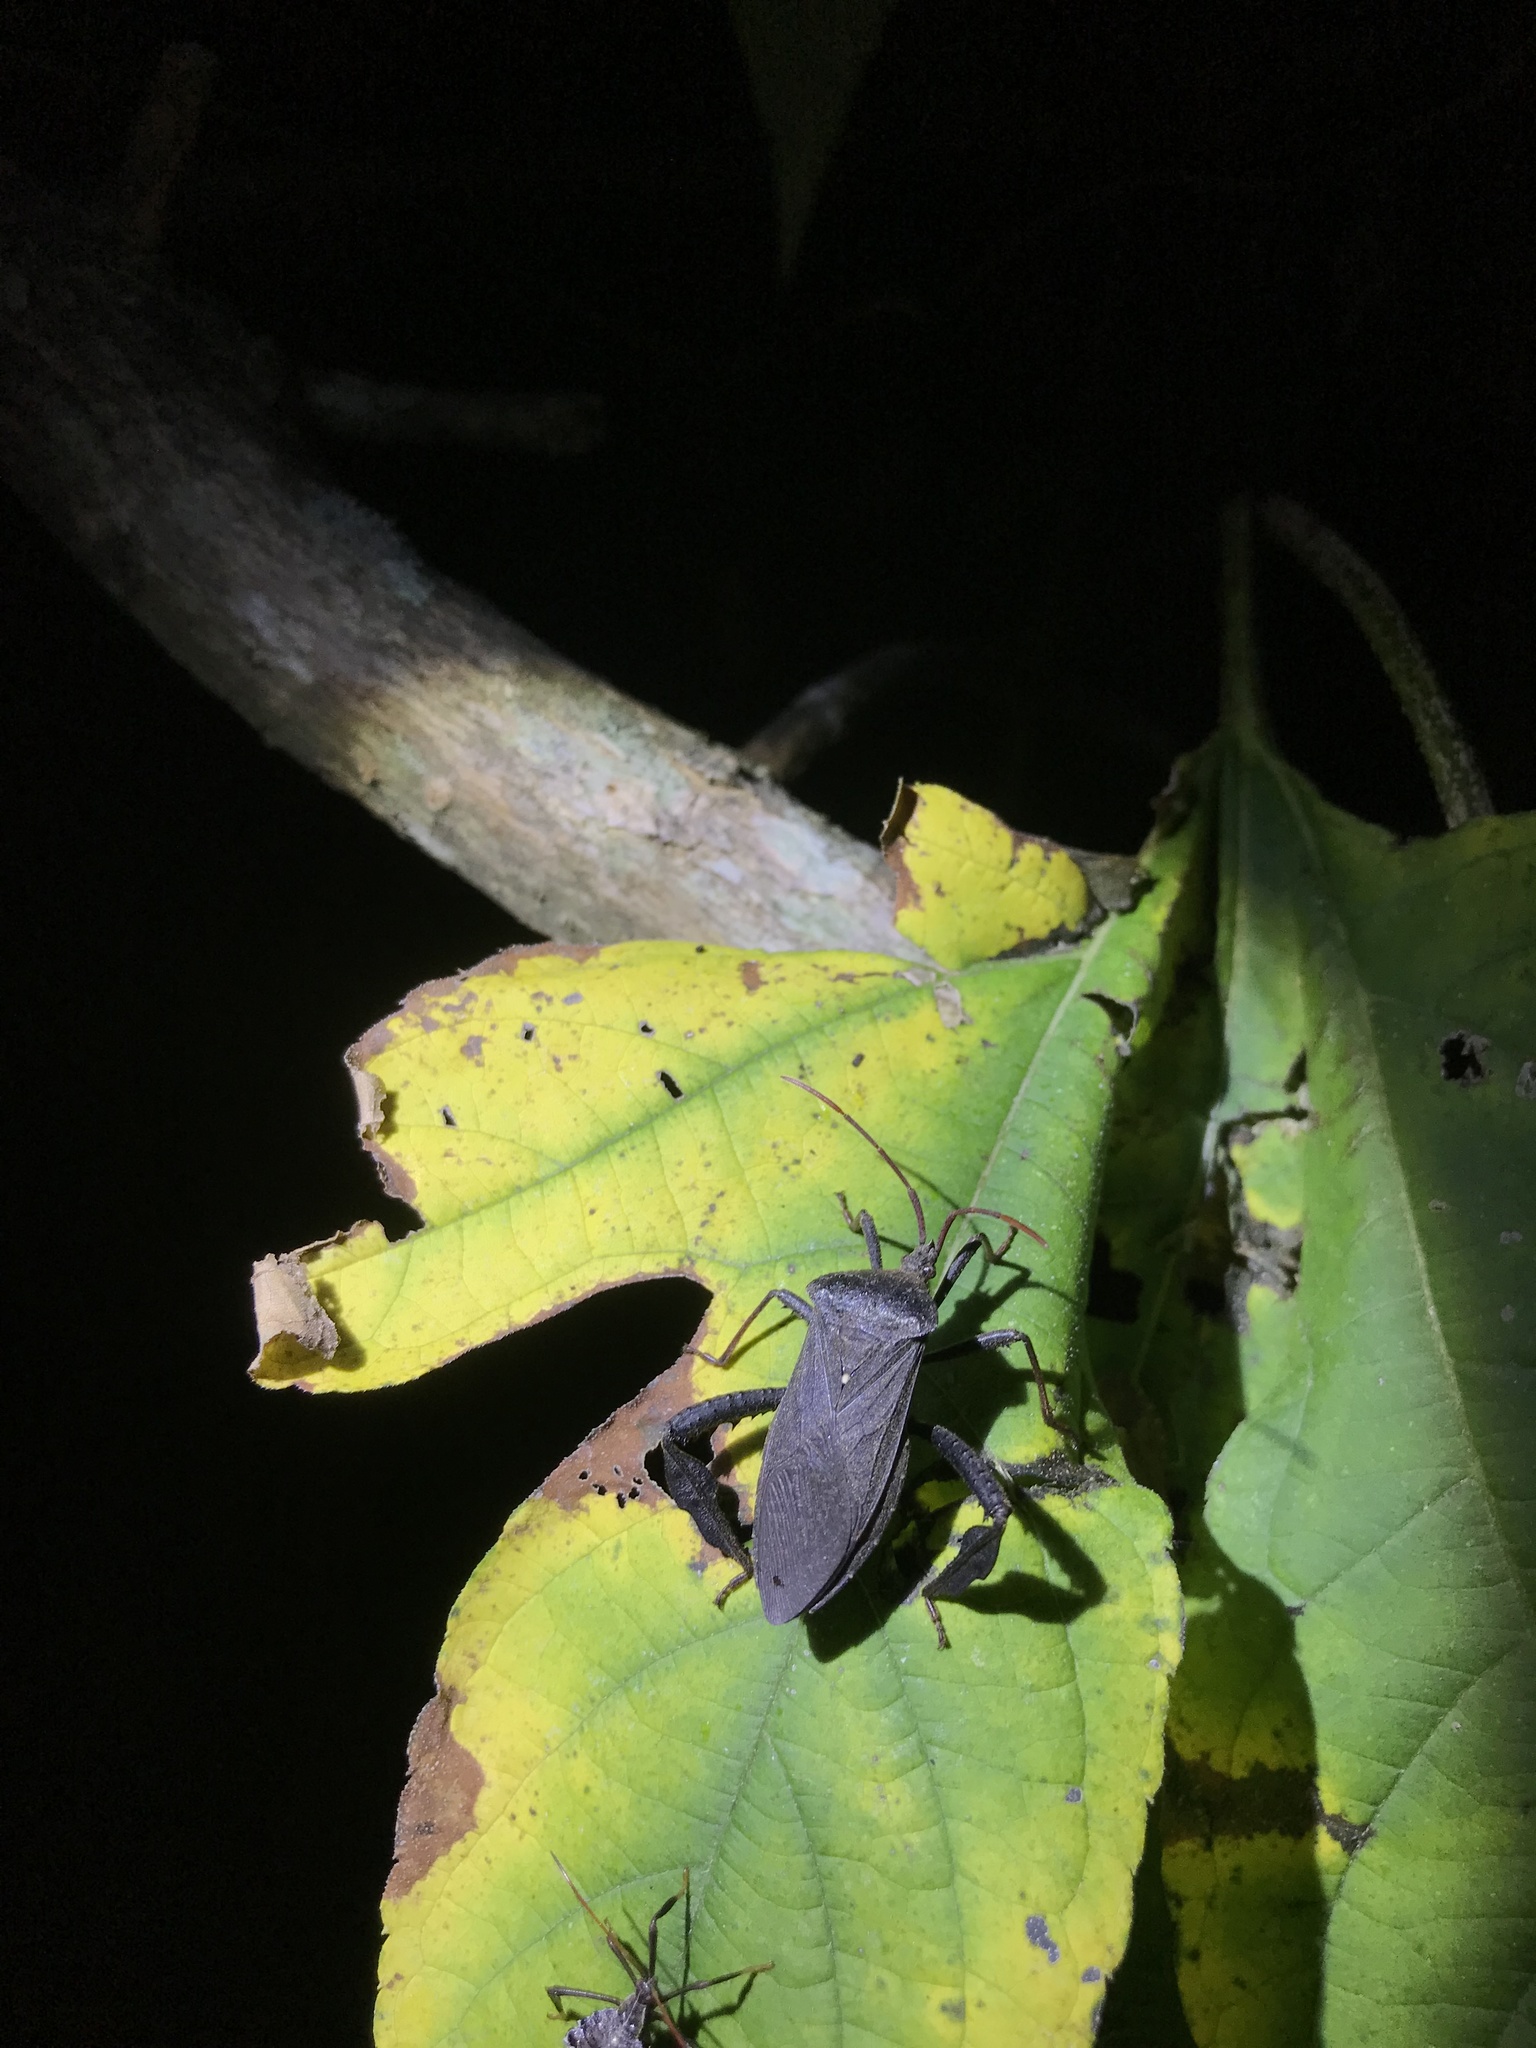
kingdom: Animalia
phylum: Arthropoda
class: Insecta
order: Hemiptera
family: Coreidae
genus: Acanthocephala
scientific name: Acanthocephala femorata
